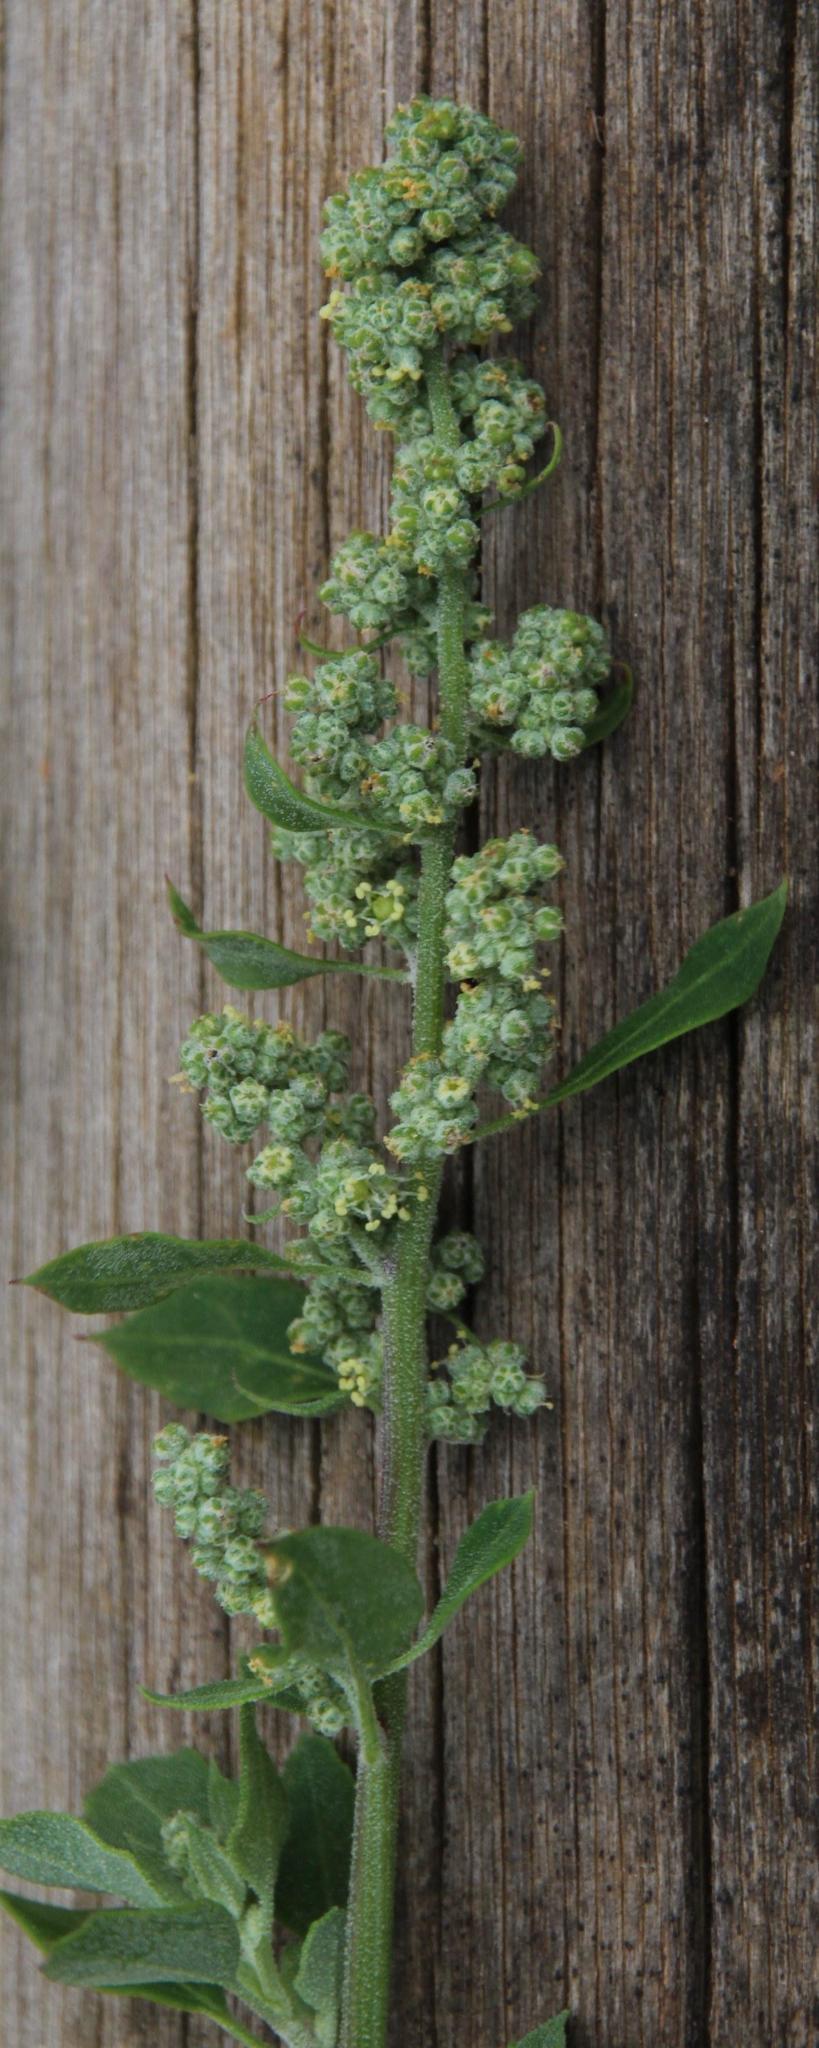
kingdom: Plantae
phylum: Tracheophyta
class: Magnoliopsida
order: Caryophyllales
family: Amaranthaceae
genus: Chenopodium
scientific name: Chenopodium mucronatum
